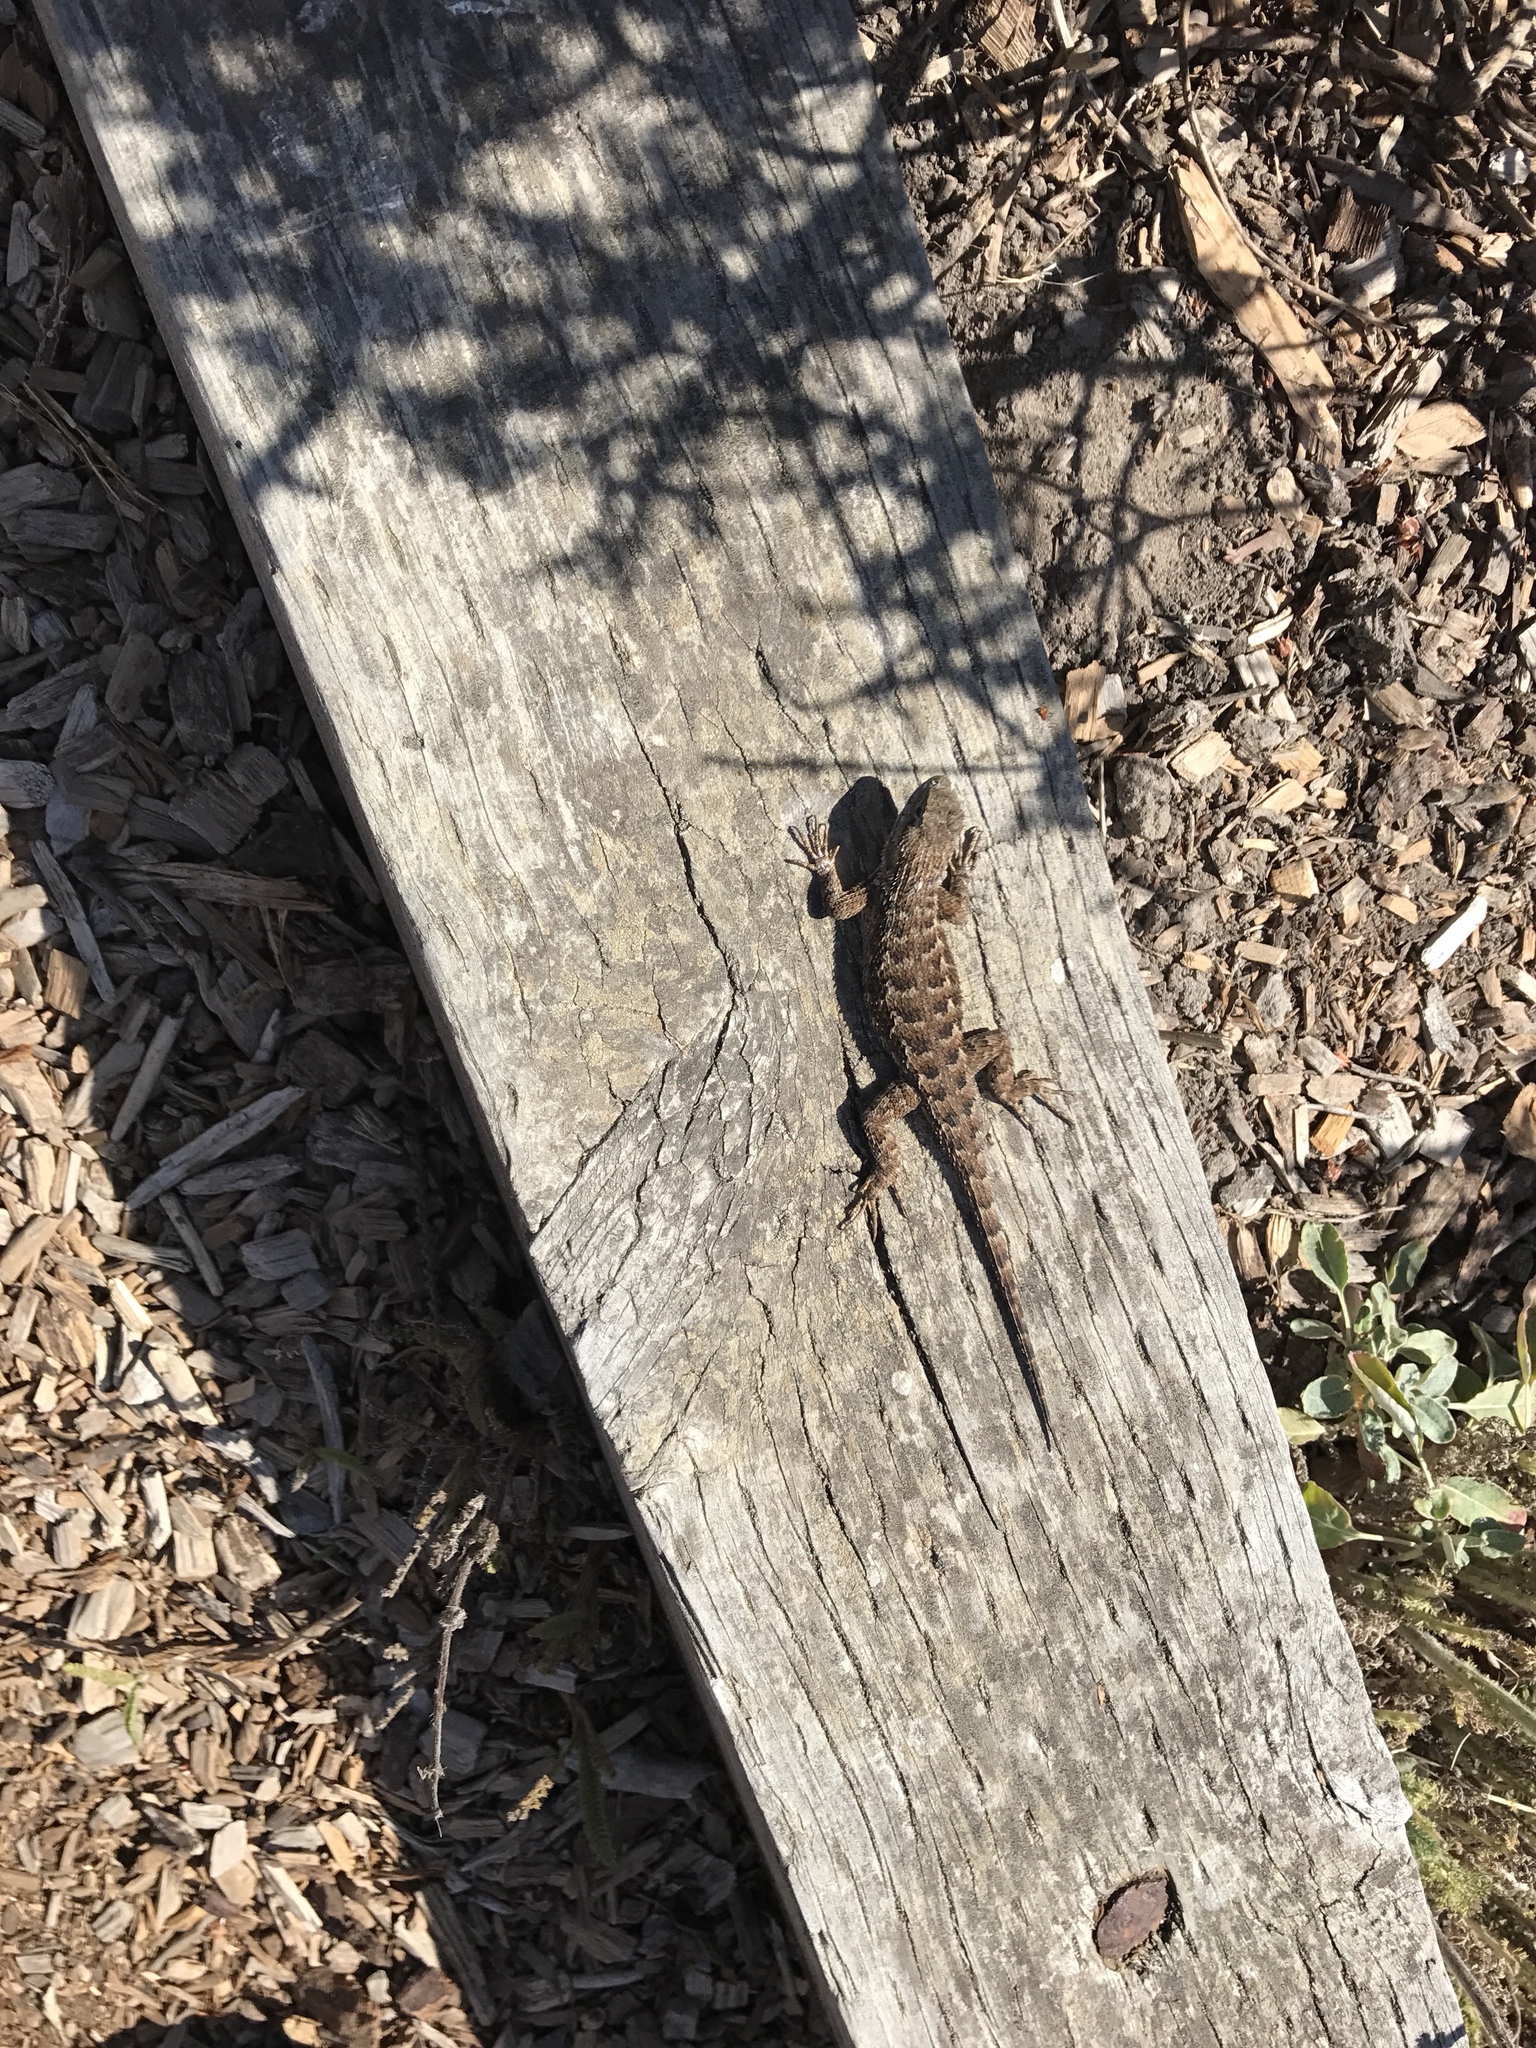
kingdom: Animalia
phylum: Chordata
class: Squamata
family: Phrynosomatidae
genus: Sceloporus
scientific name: Sceloporus occidentalis
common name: Western fence lizard
